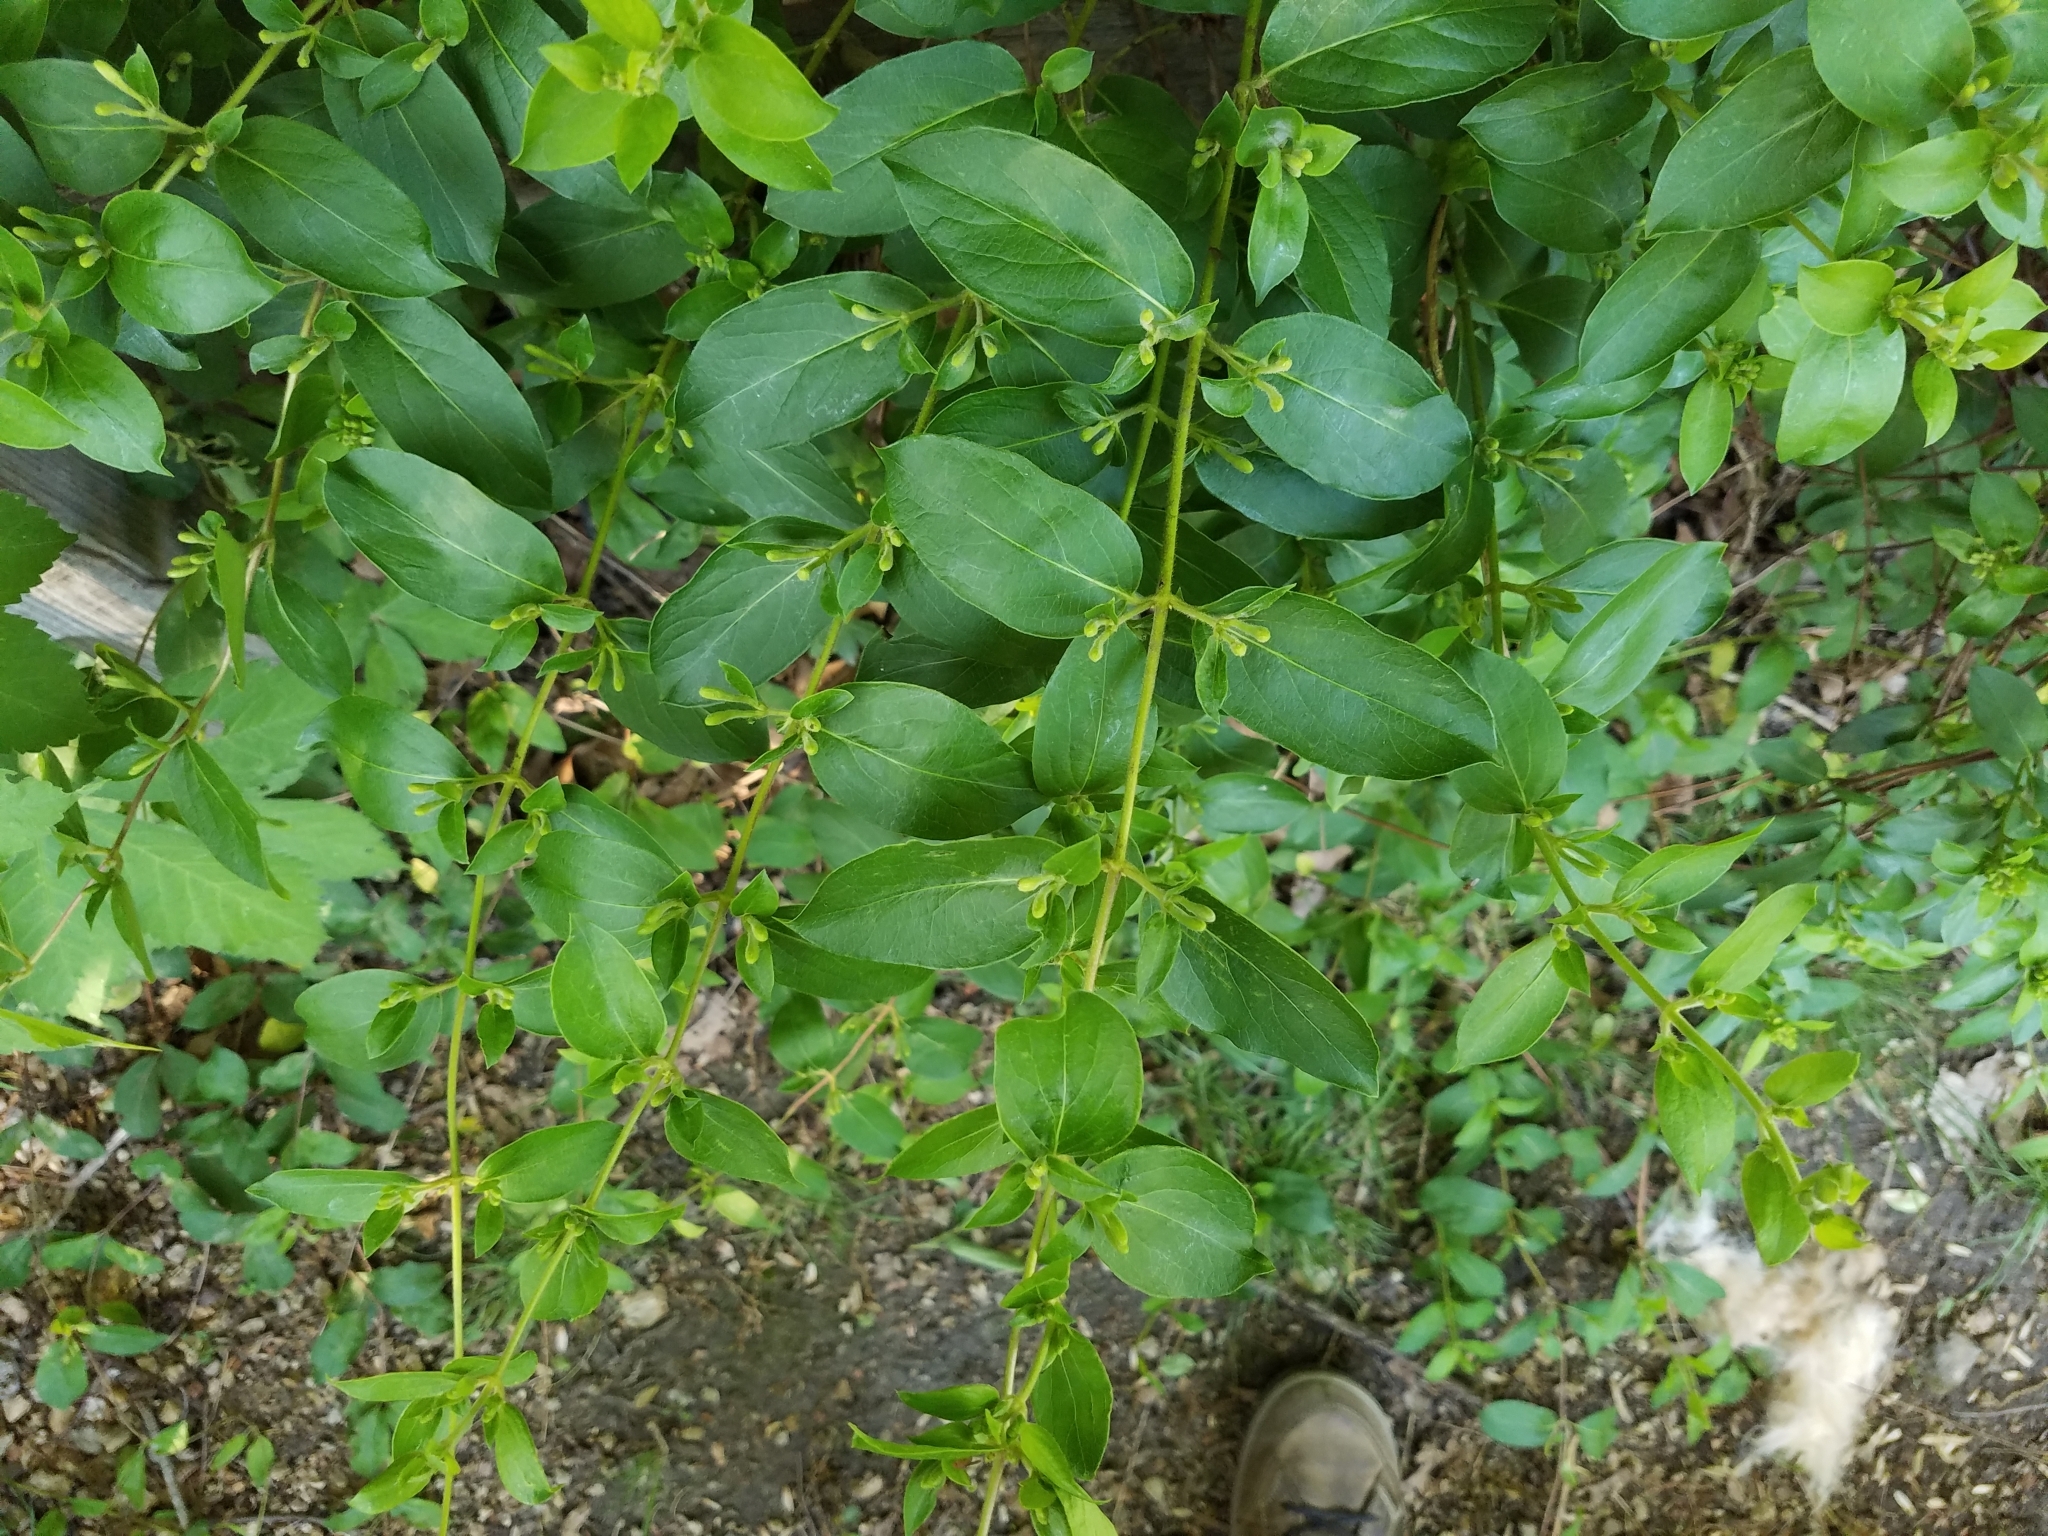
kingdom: Plantae
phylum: Tracheophyta
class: Magnoliopsida
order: Dipsacales
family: Caprifoliaceae
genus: Lonicera
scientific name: Lonicera japonica
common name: Japanese honeysuckle
